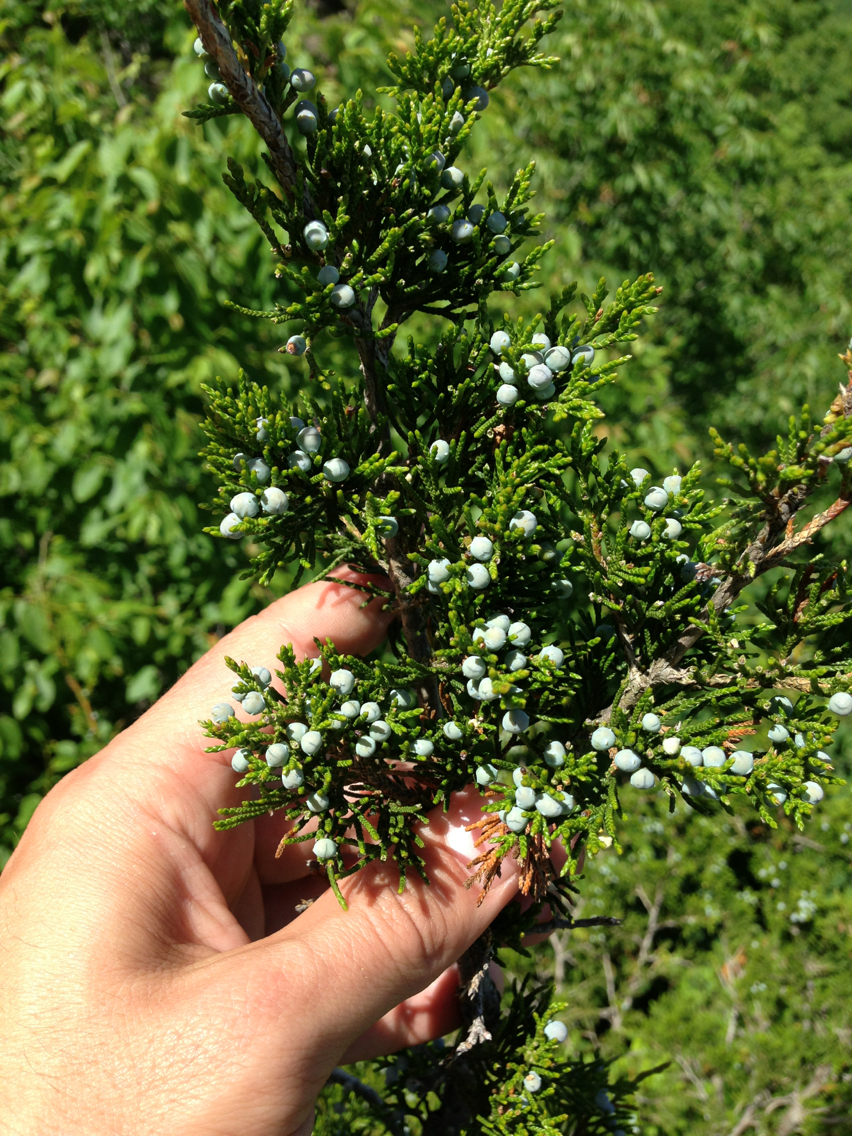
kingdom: Plantae
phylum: Tracheophyta
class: Pinopsida
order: Pinales
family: Cupressaceae
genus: Juniperus
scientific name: Juniperus virginiana
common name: Red juniper
